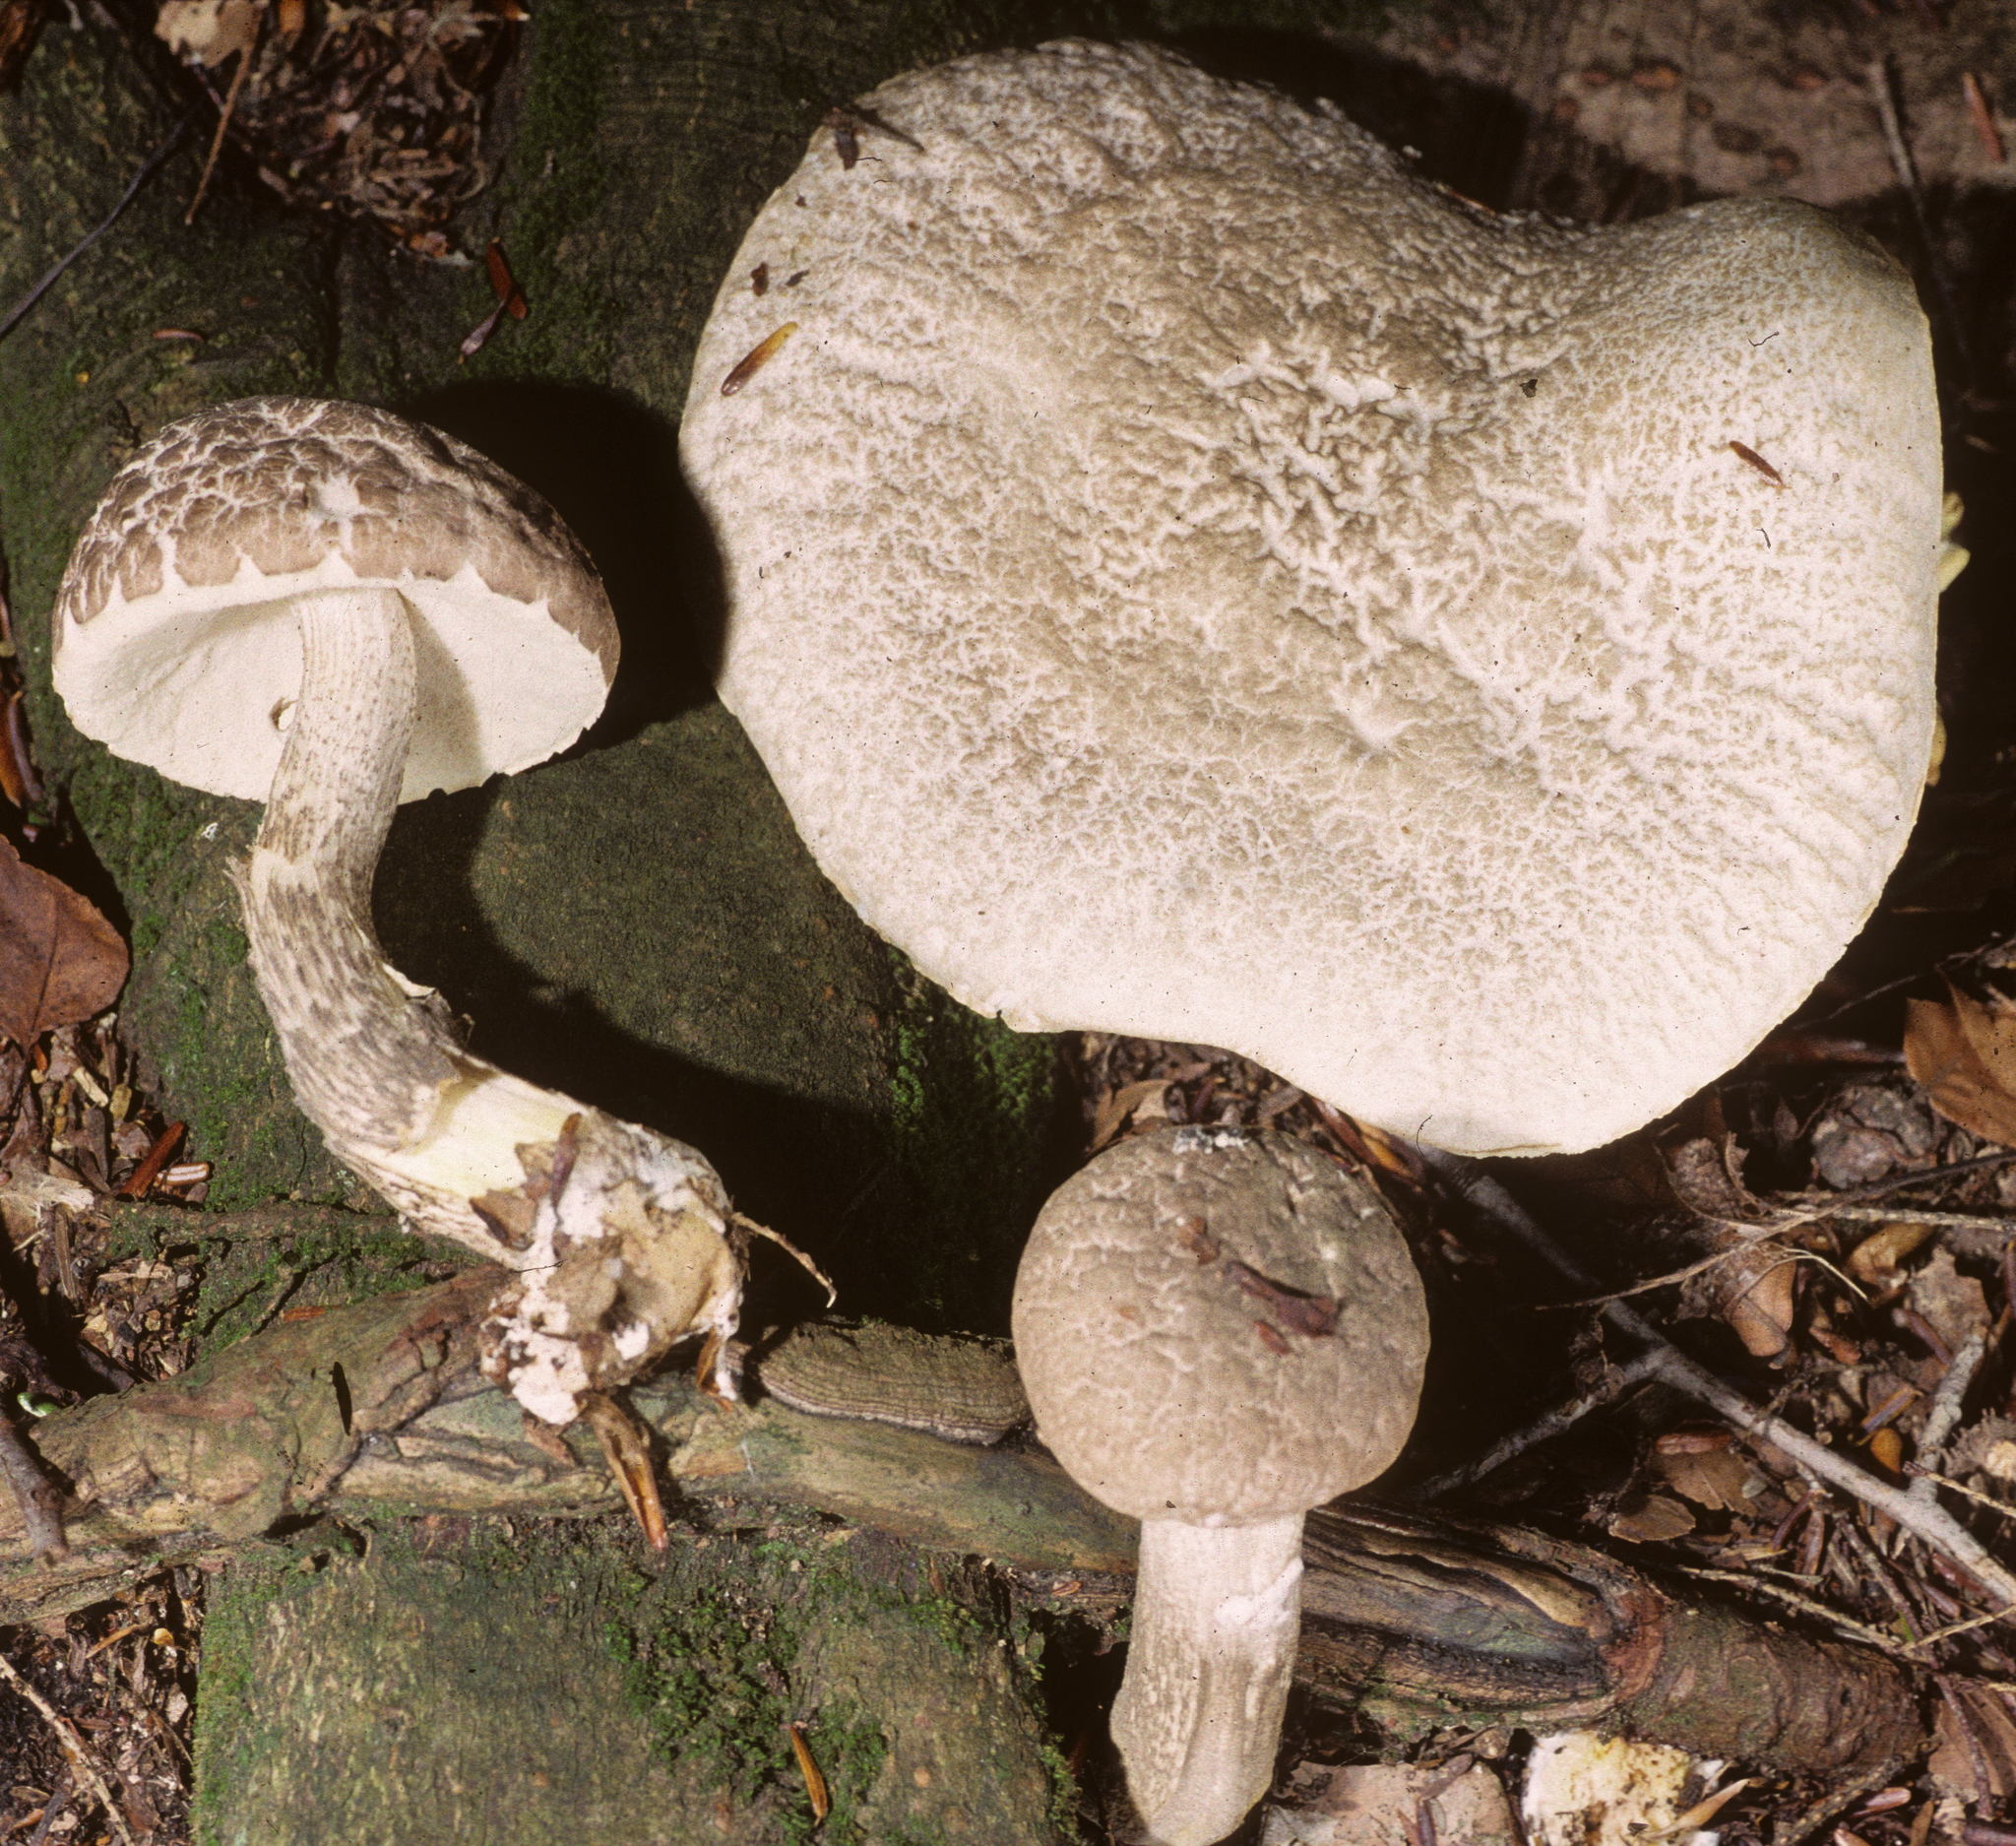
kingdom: Fungi
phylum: Basidiomycota
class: Agaricomycetes
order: Boletales
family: Boletaceae
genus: Leccinellum
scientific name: Leccinellum albellum
